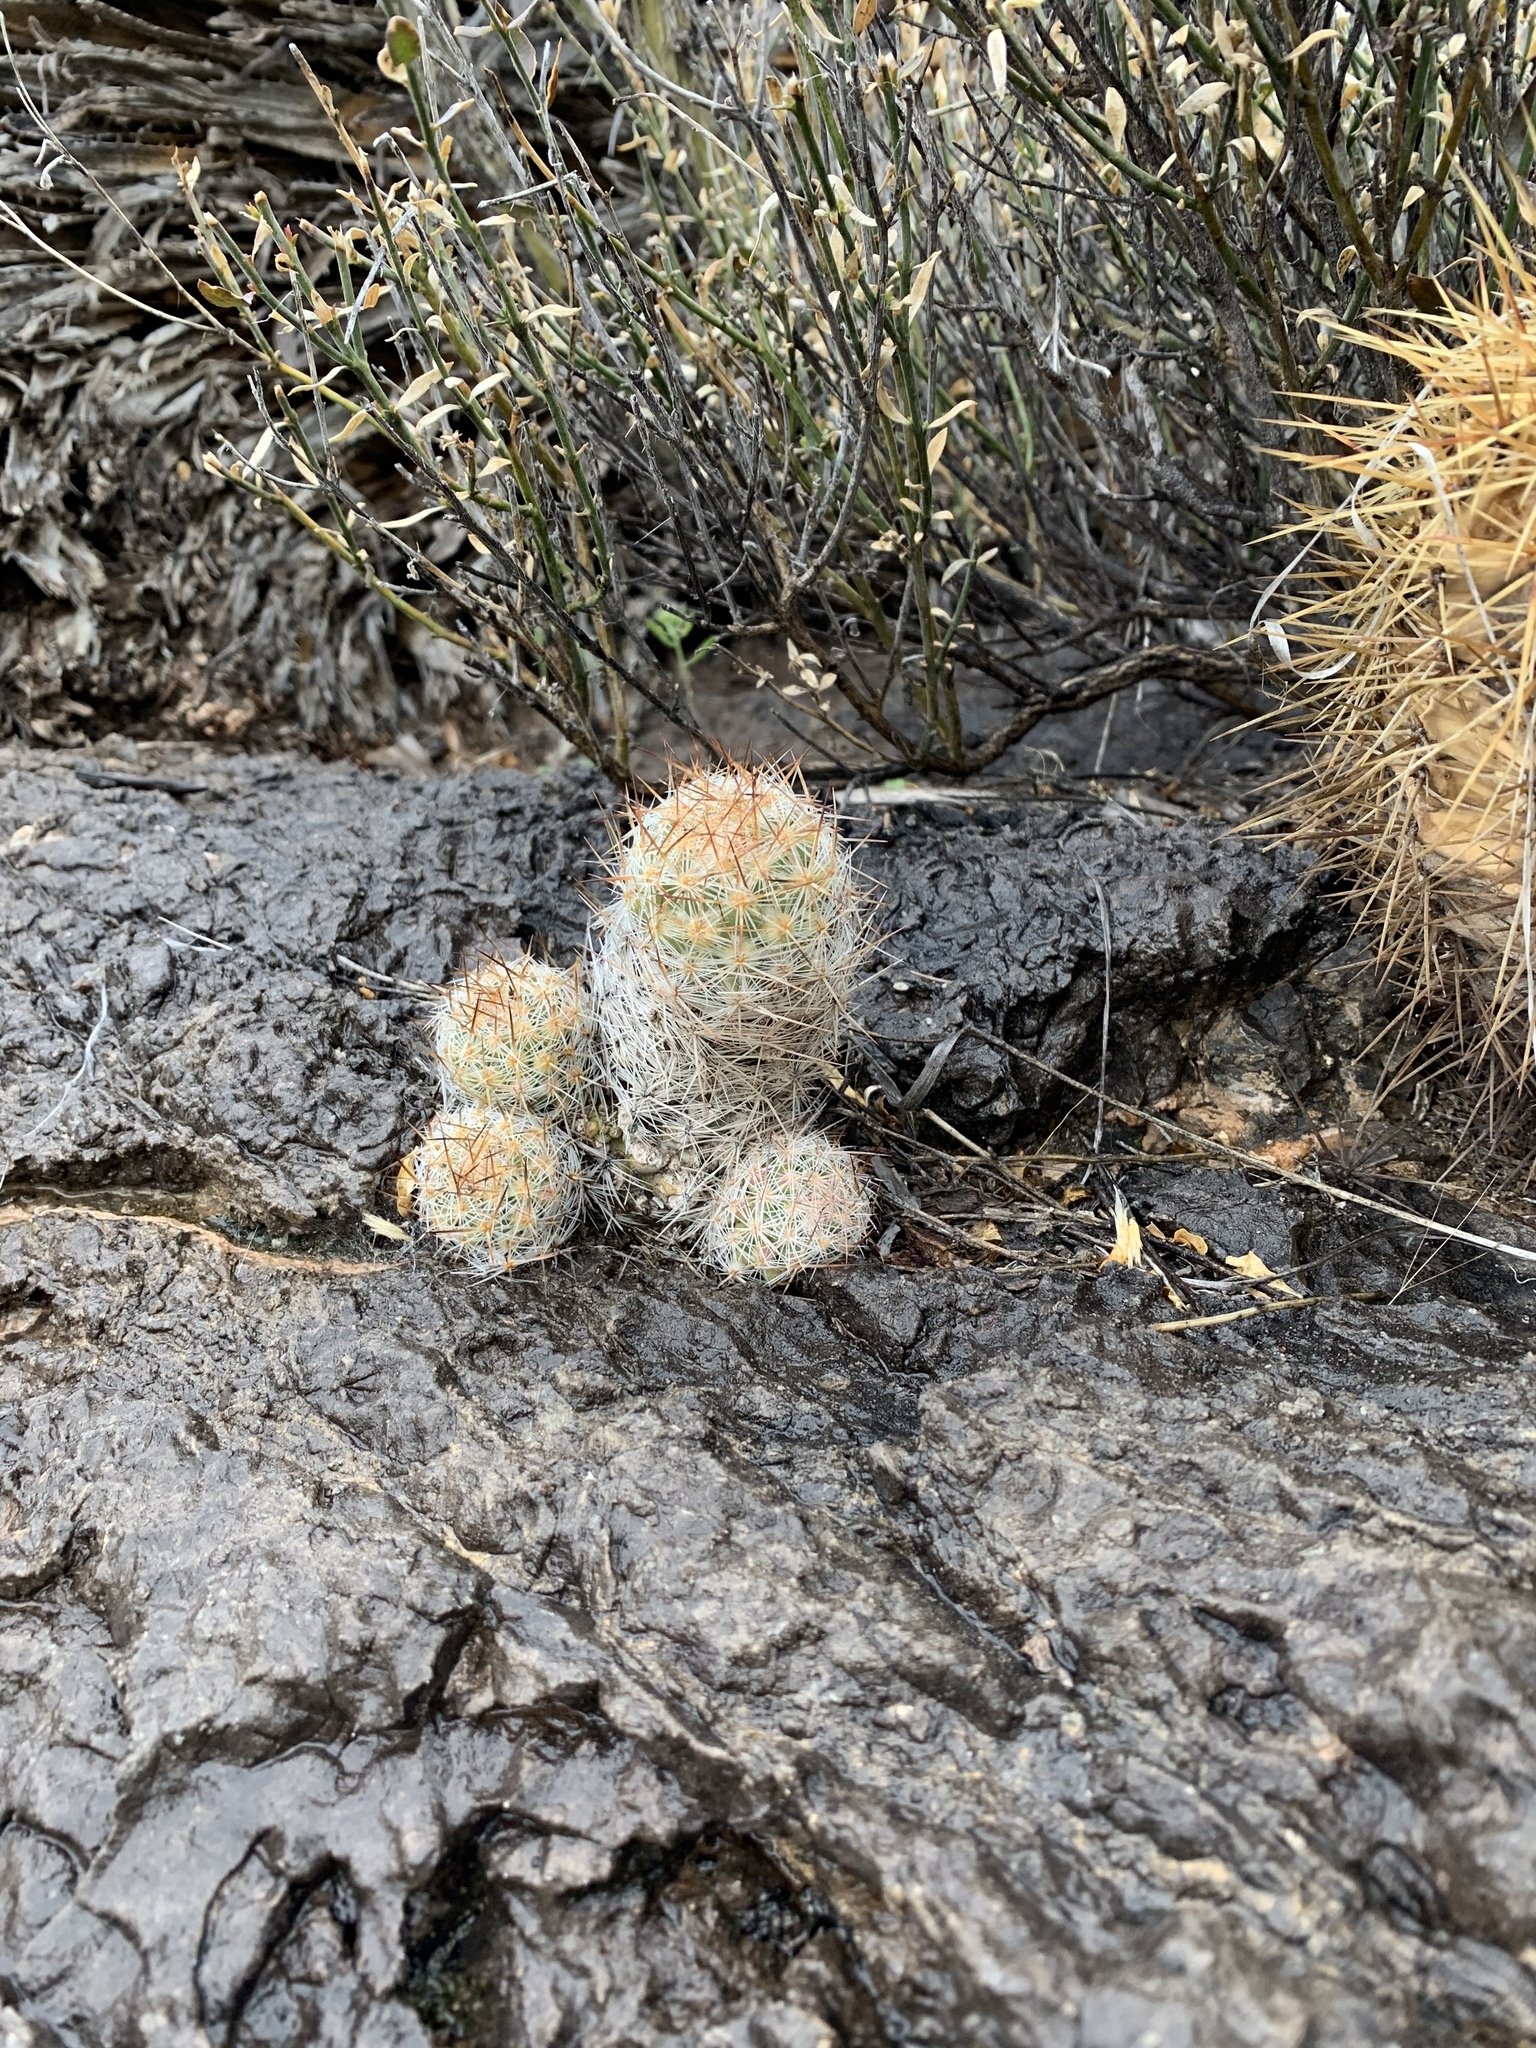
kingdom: Plantae
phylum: Tracheophyta
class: Magnoliopsida
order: Caryophyllales
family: Cactaceae
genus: Pelecyphora
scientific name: Pelecyphora tuberculosa
